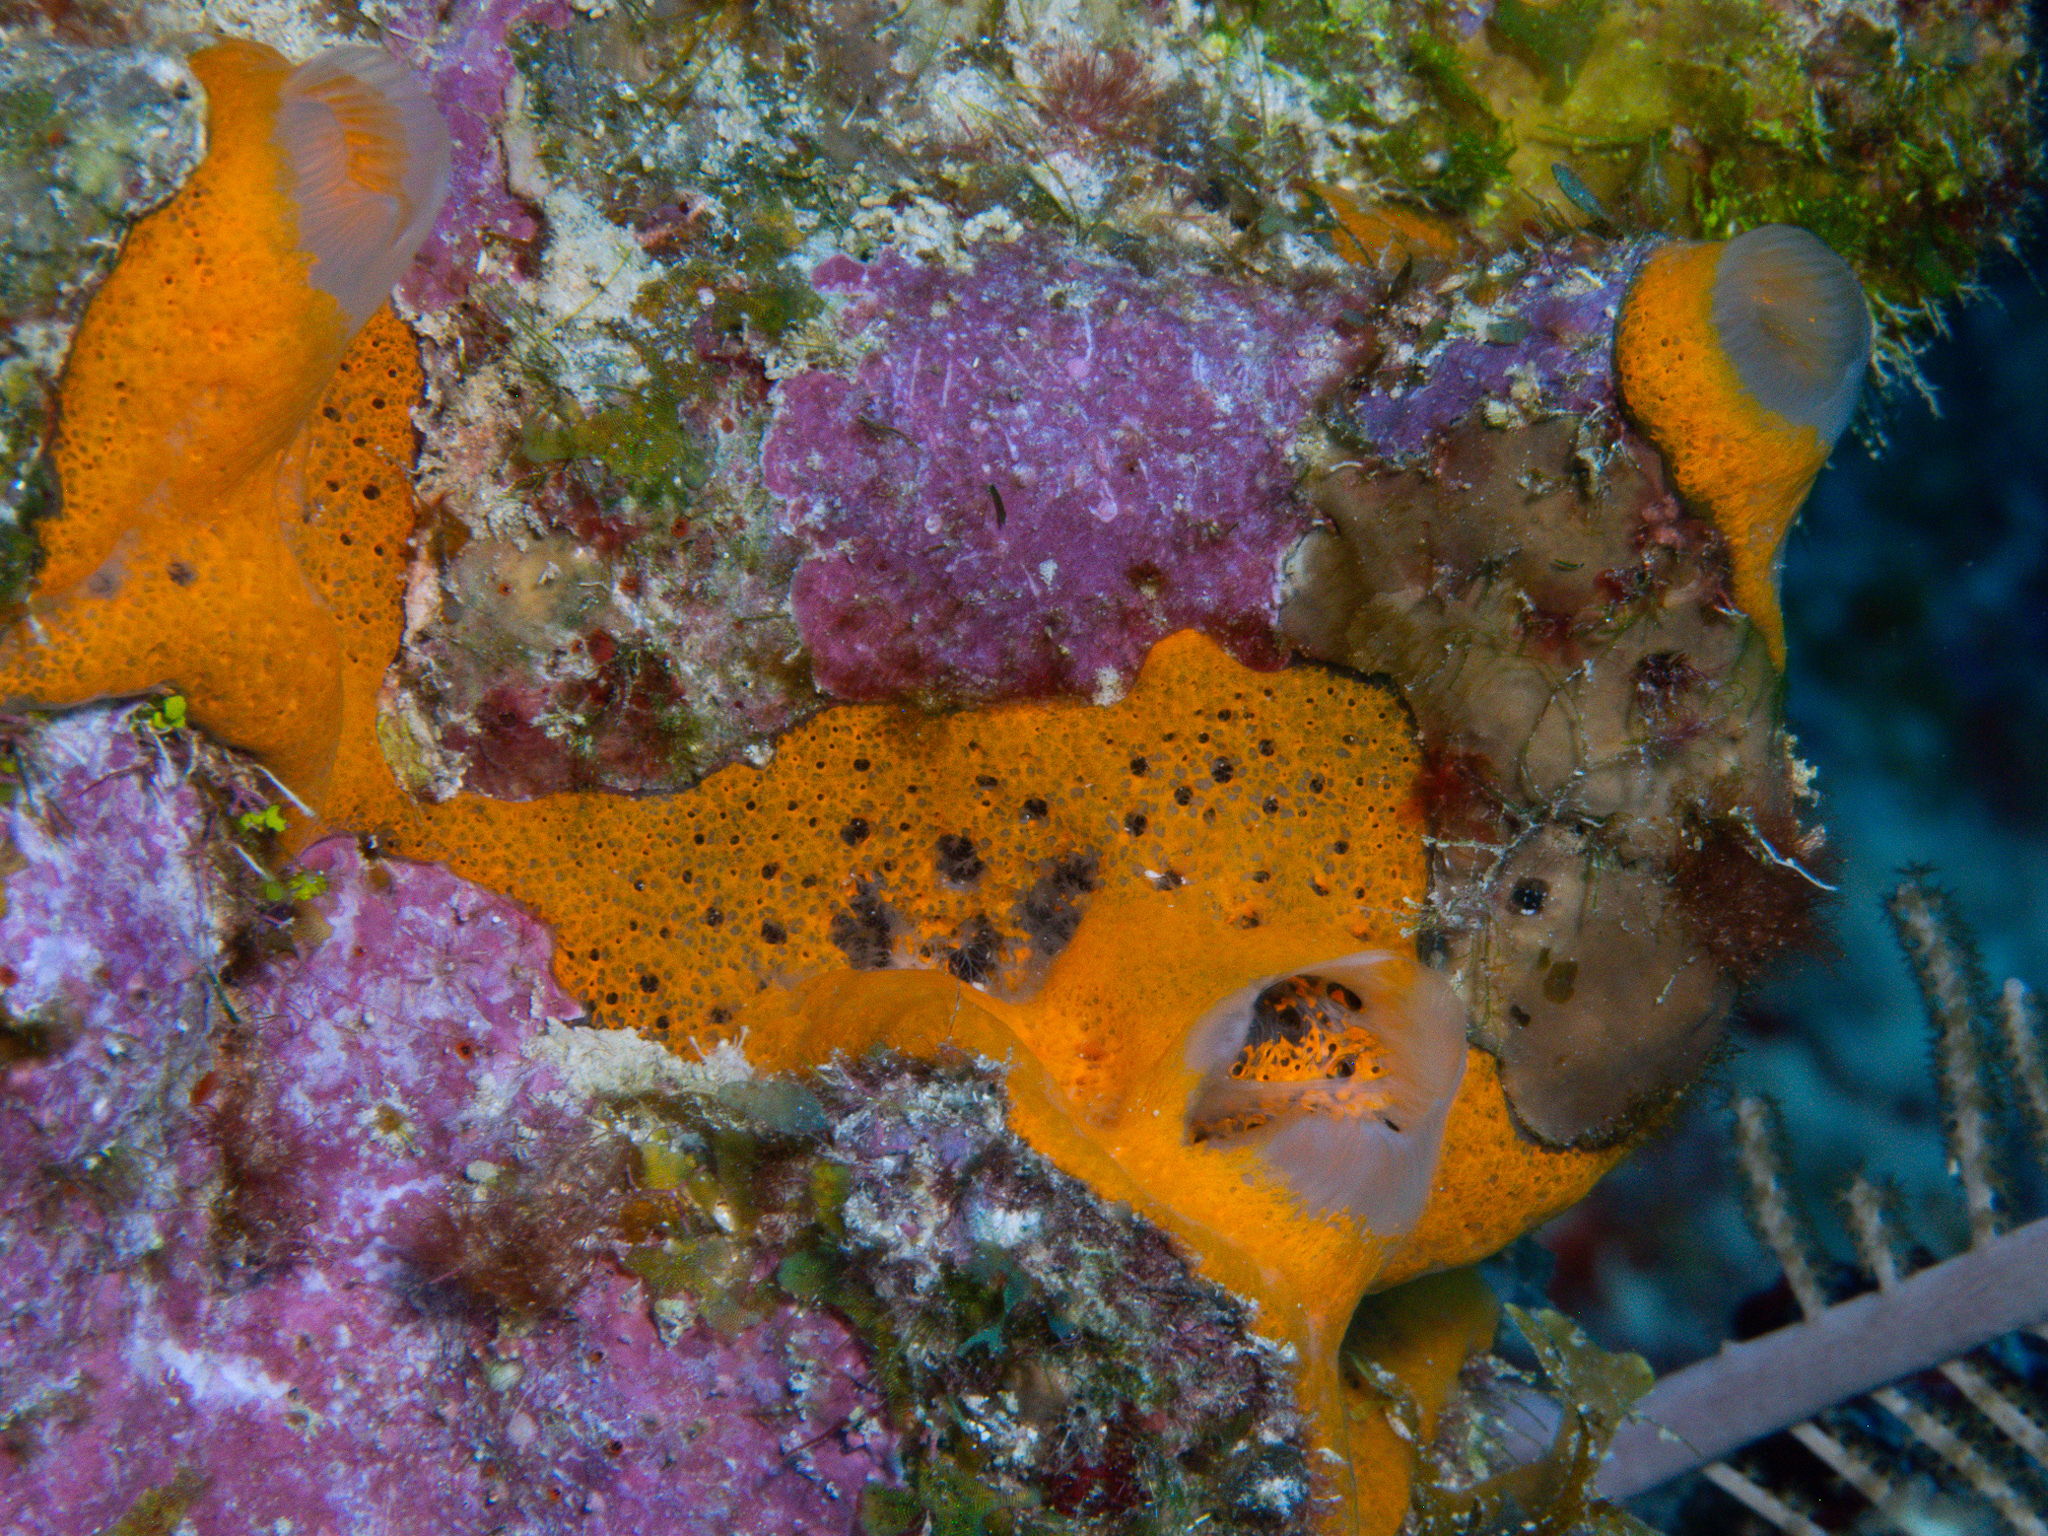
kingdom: Animalia
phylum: Porifera
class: Demospongiae
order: Poecilosclerida
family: Mycalidae
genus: Mycale
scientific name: Mycale laevis
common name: Orange icing sponge
